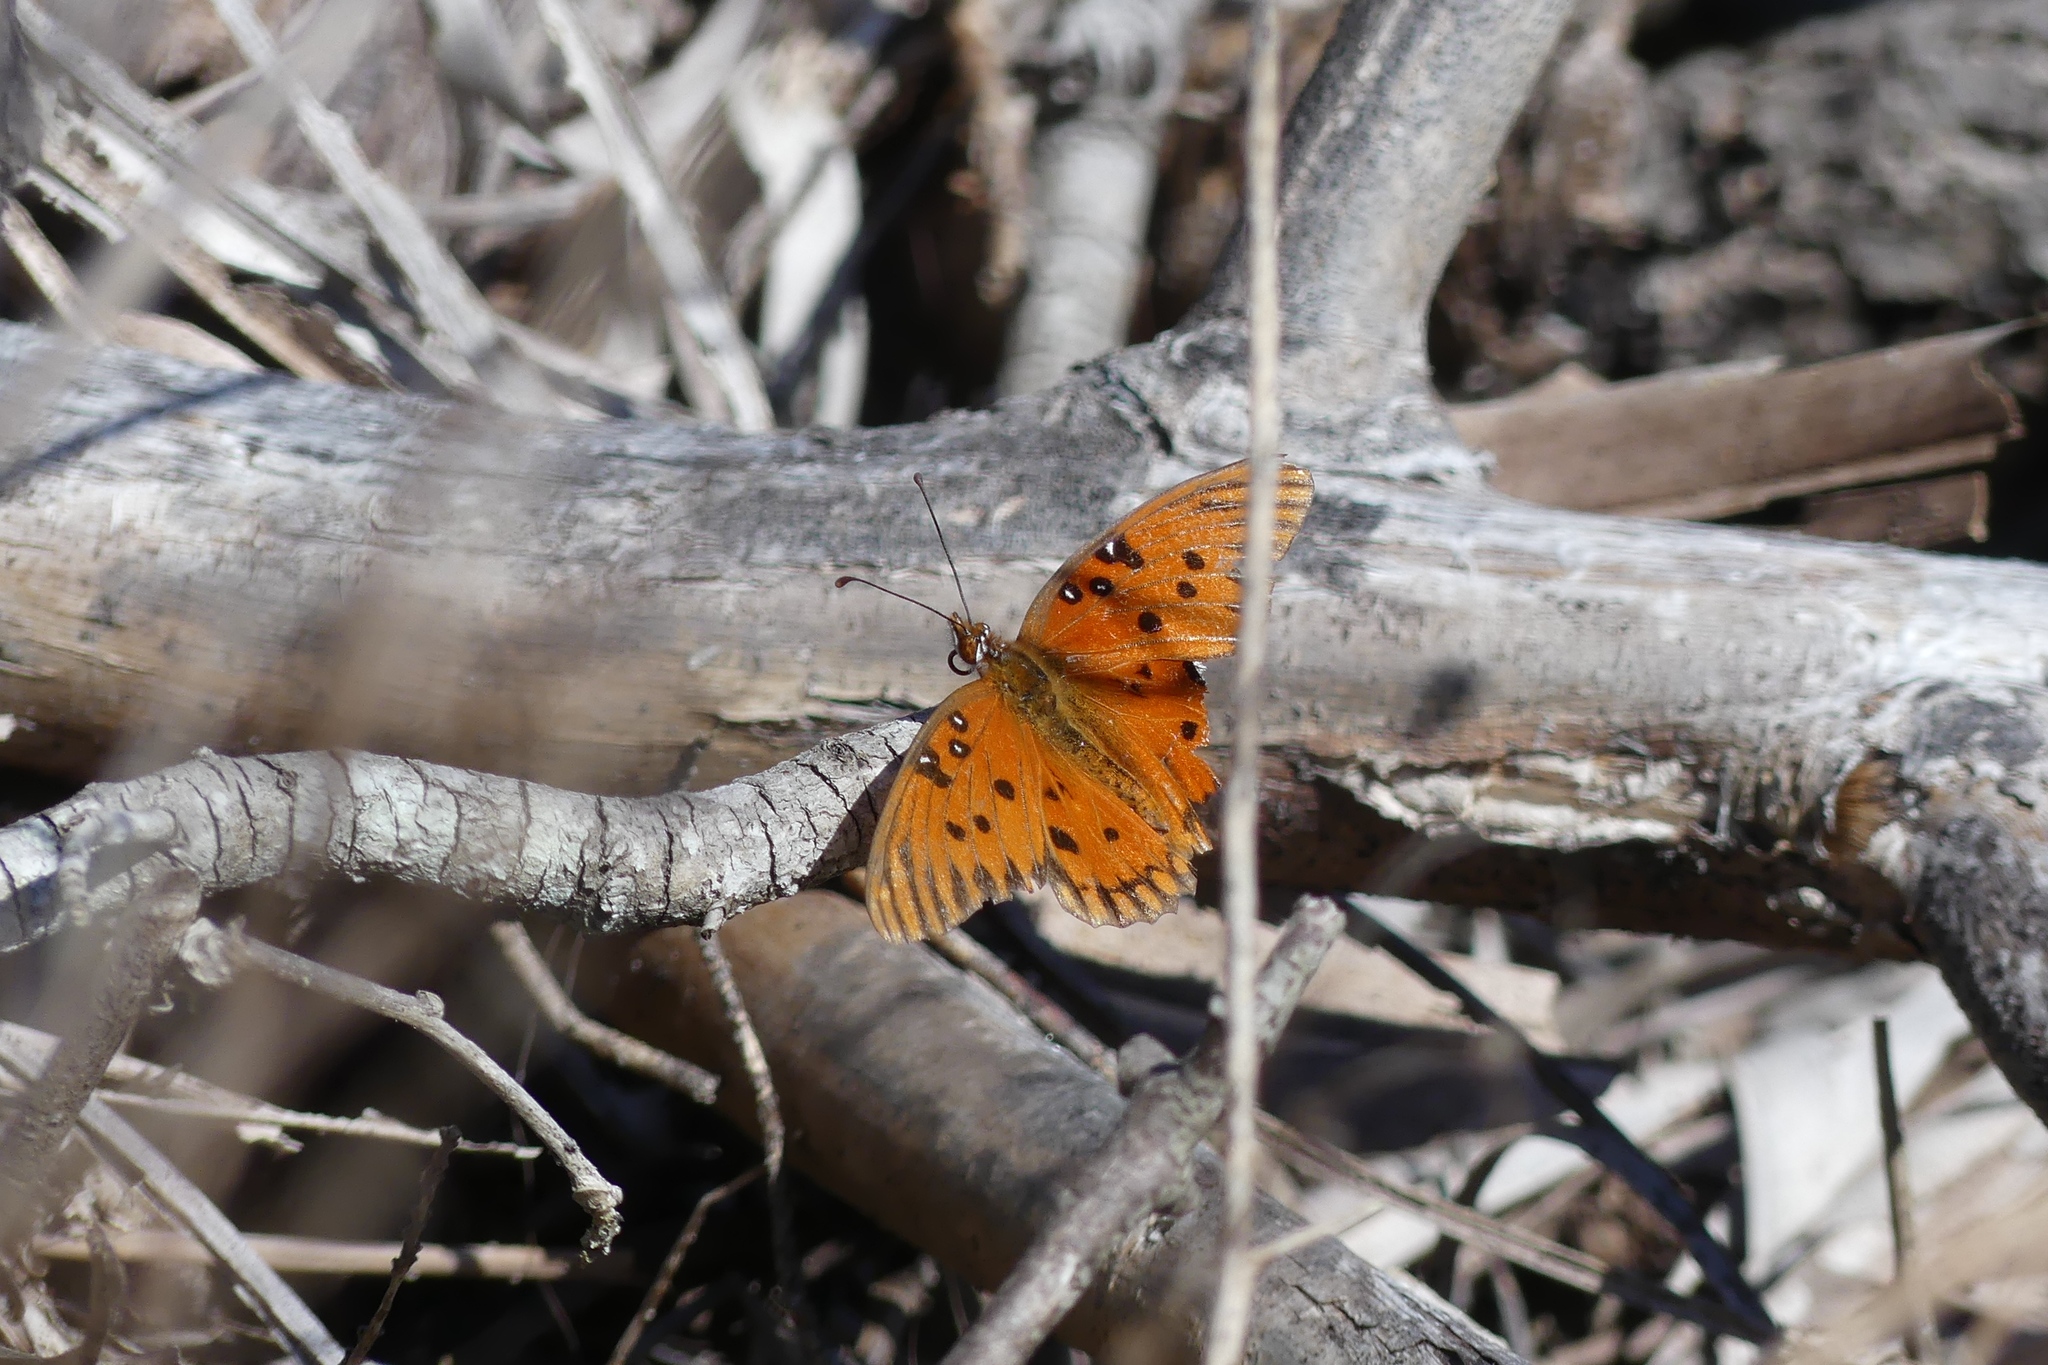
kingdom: Animalia
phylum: Arthropoda
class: Insecta
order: Lepidoptera
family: Nymphalidae
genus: Dione
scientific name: Dione vanillae
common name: Gulf fritillary
